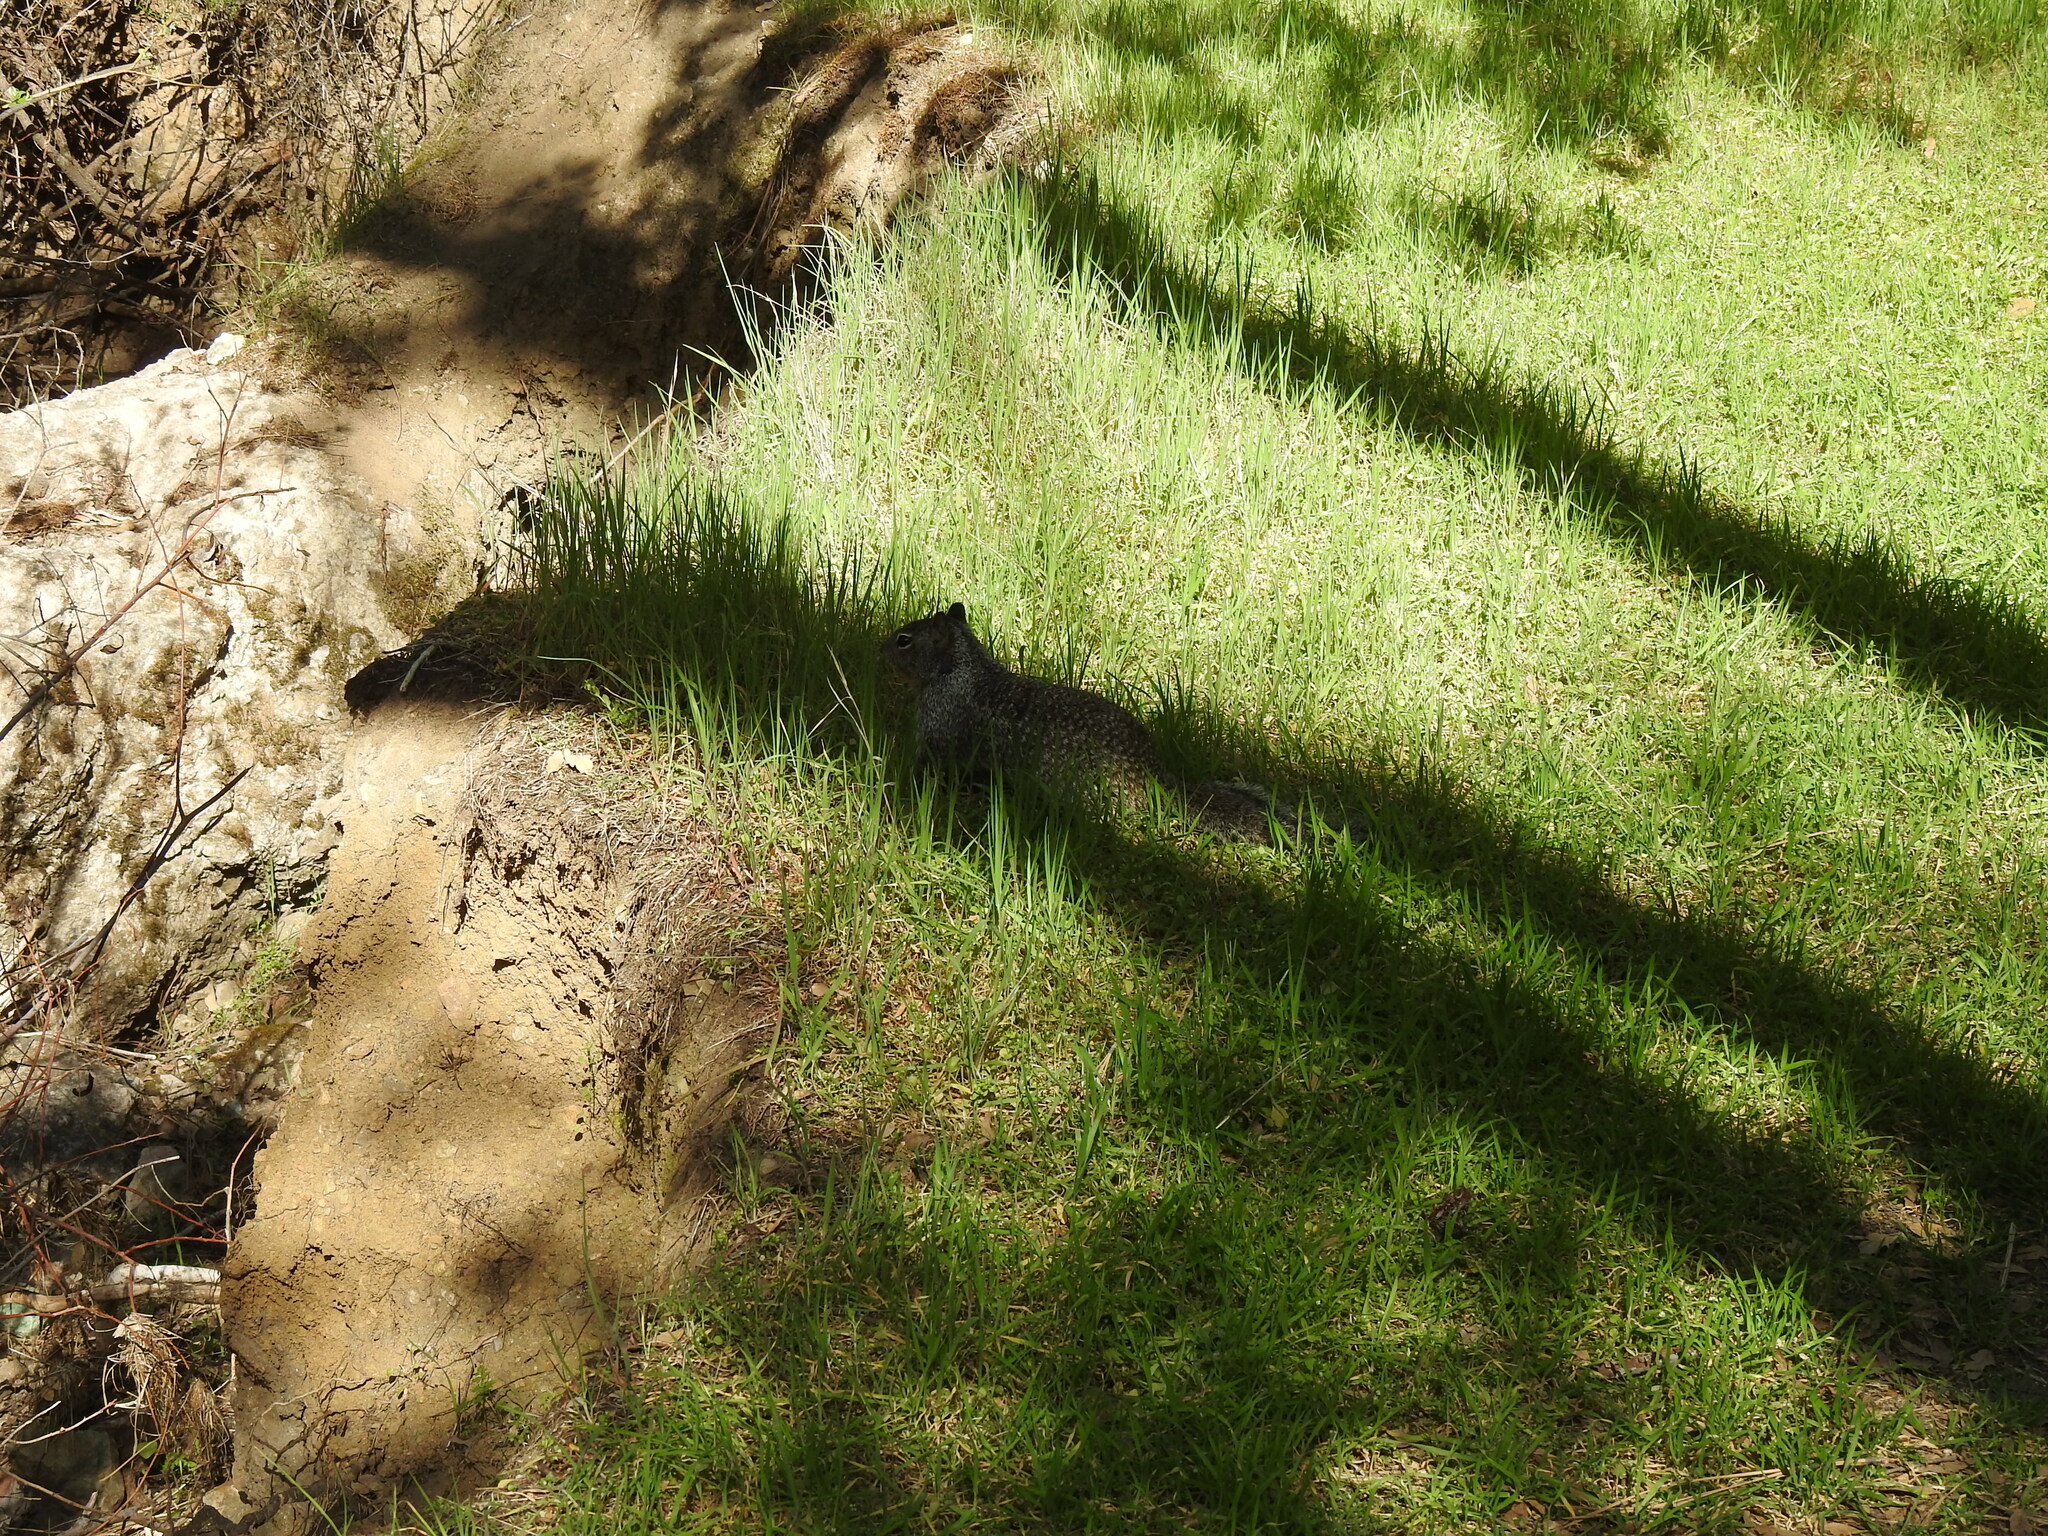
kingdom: Animalia
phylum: Chordata
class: Mammalia
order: Rodentia
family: Sciuridae
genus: Otospermophilus
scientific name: Otospermophilus beecheyi
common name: California ground squirrel
